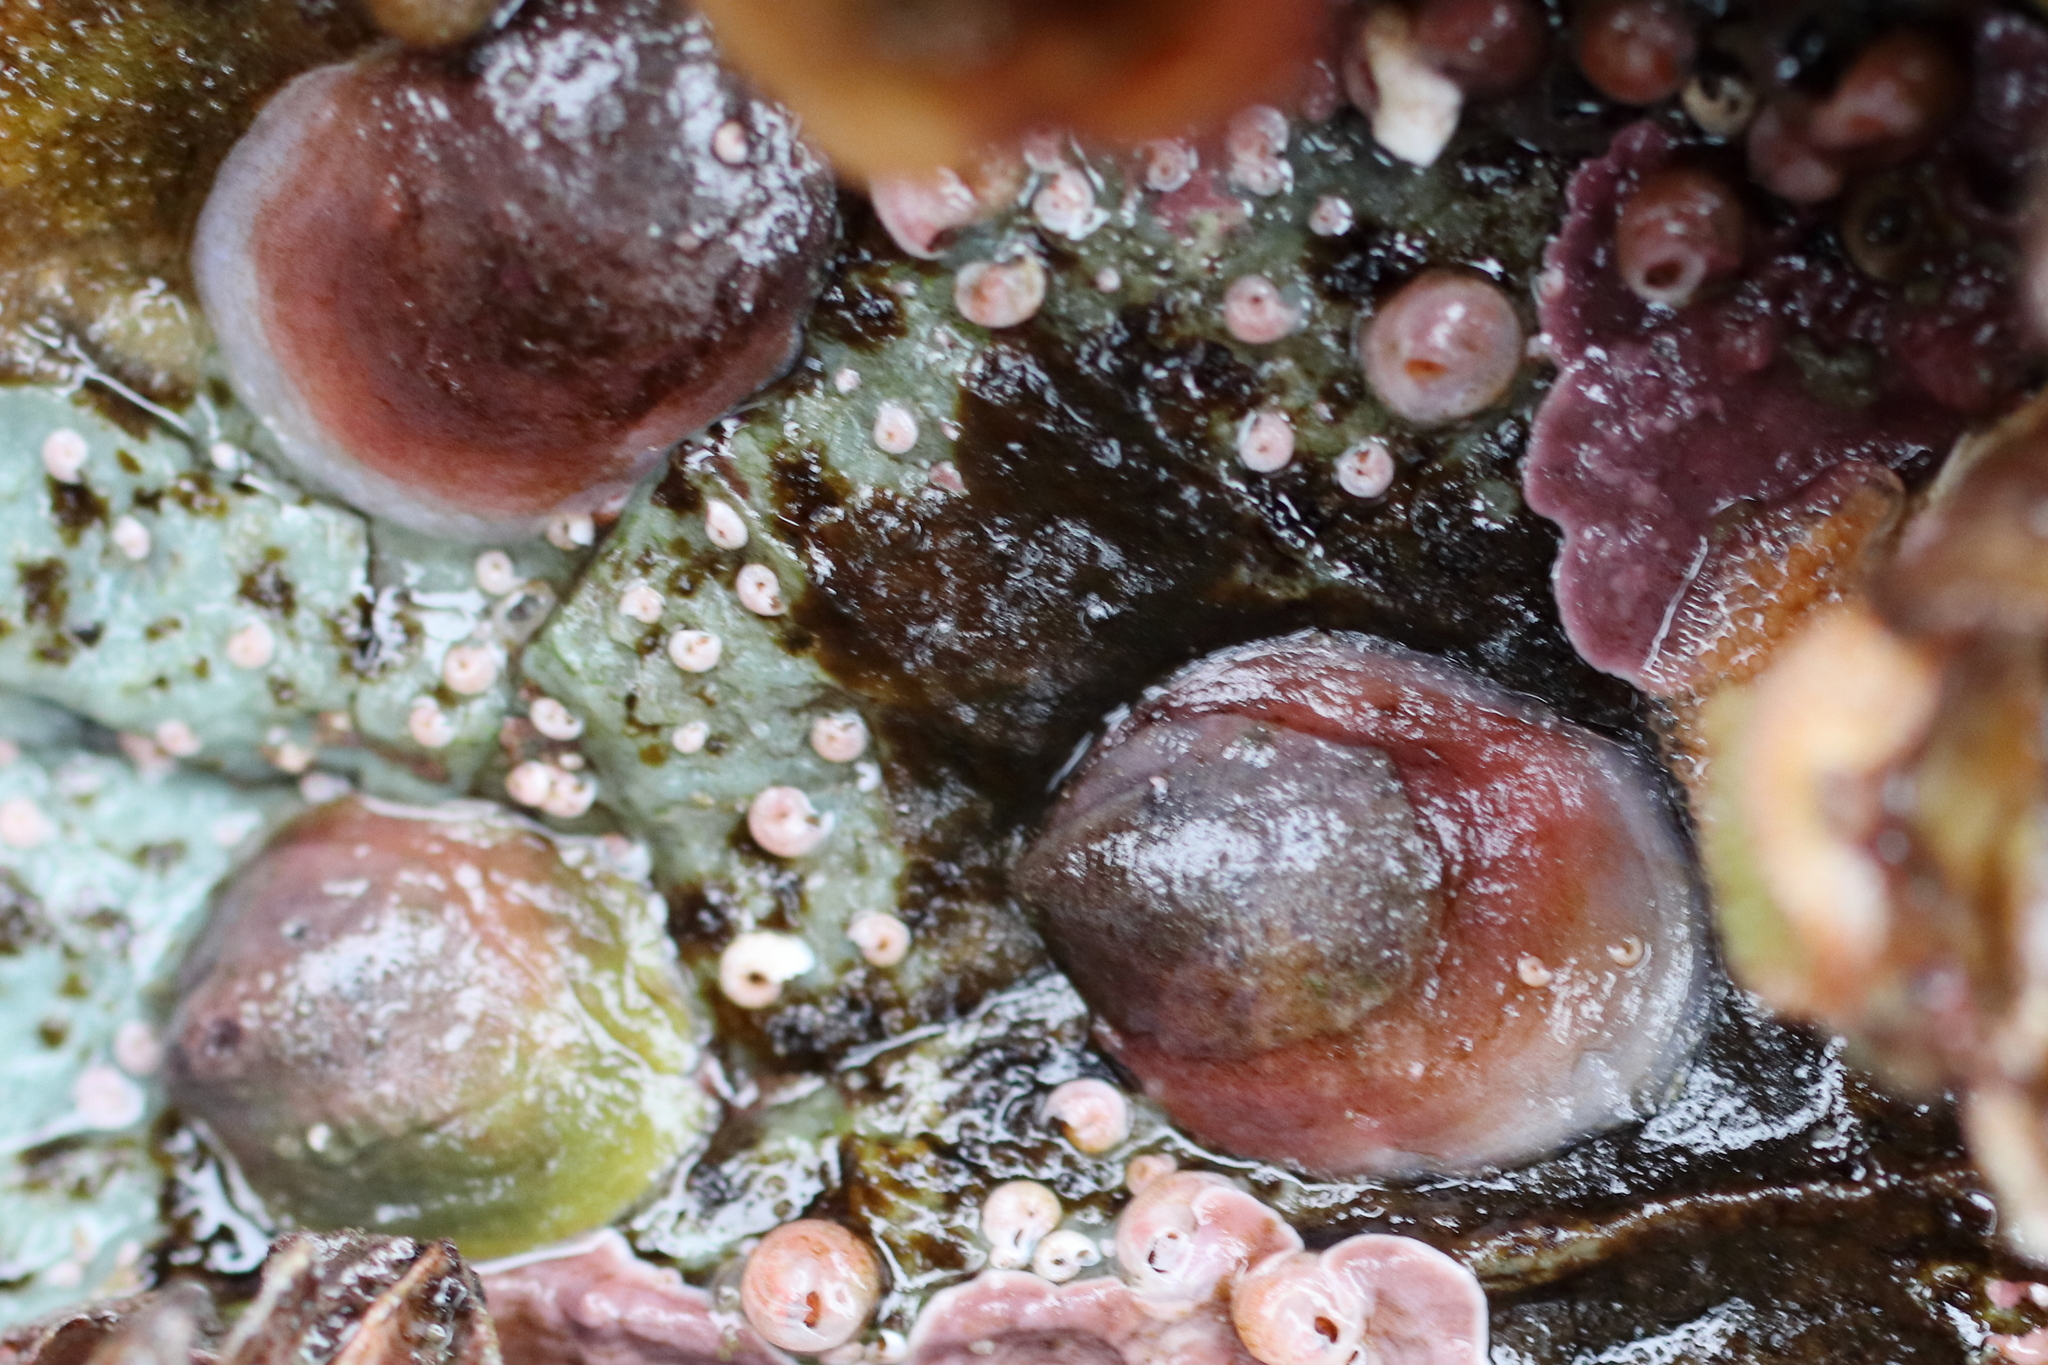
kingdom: Animalia
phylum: Mollusca
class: Gastropoda
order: Littorinimorpha
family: Calyptraeidae
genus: Crepipatella
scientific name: Crepipatella lingulata
